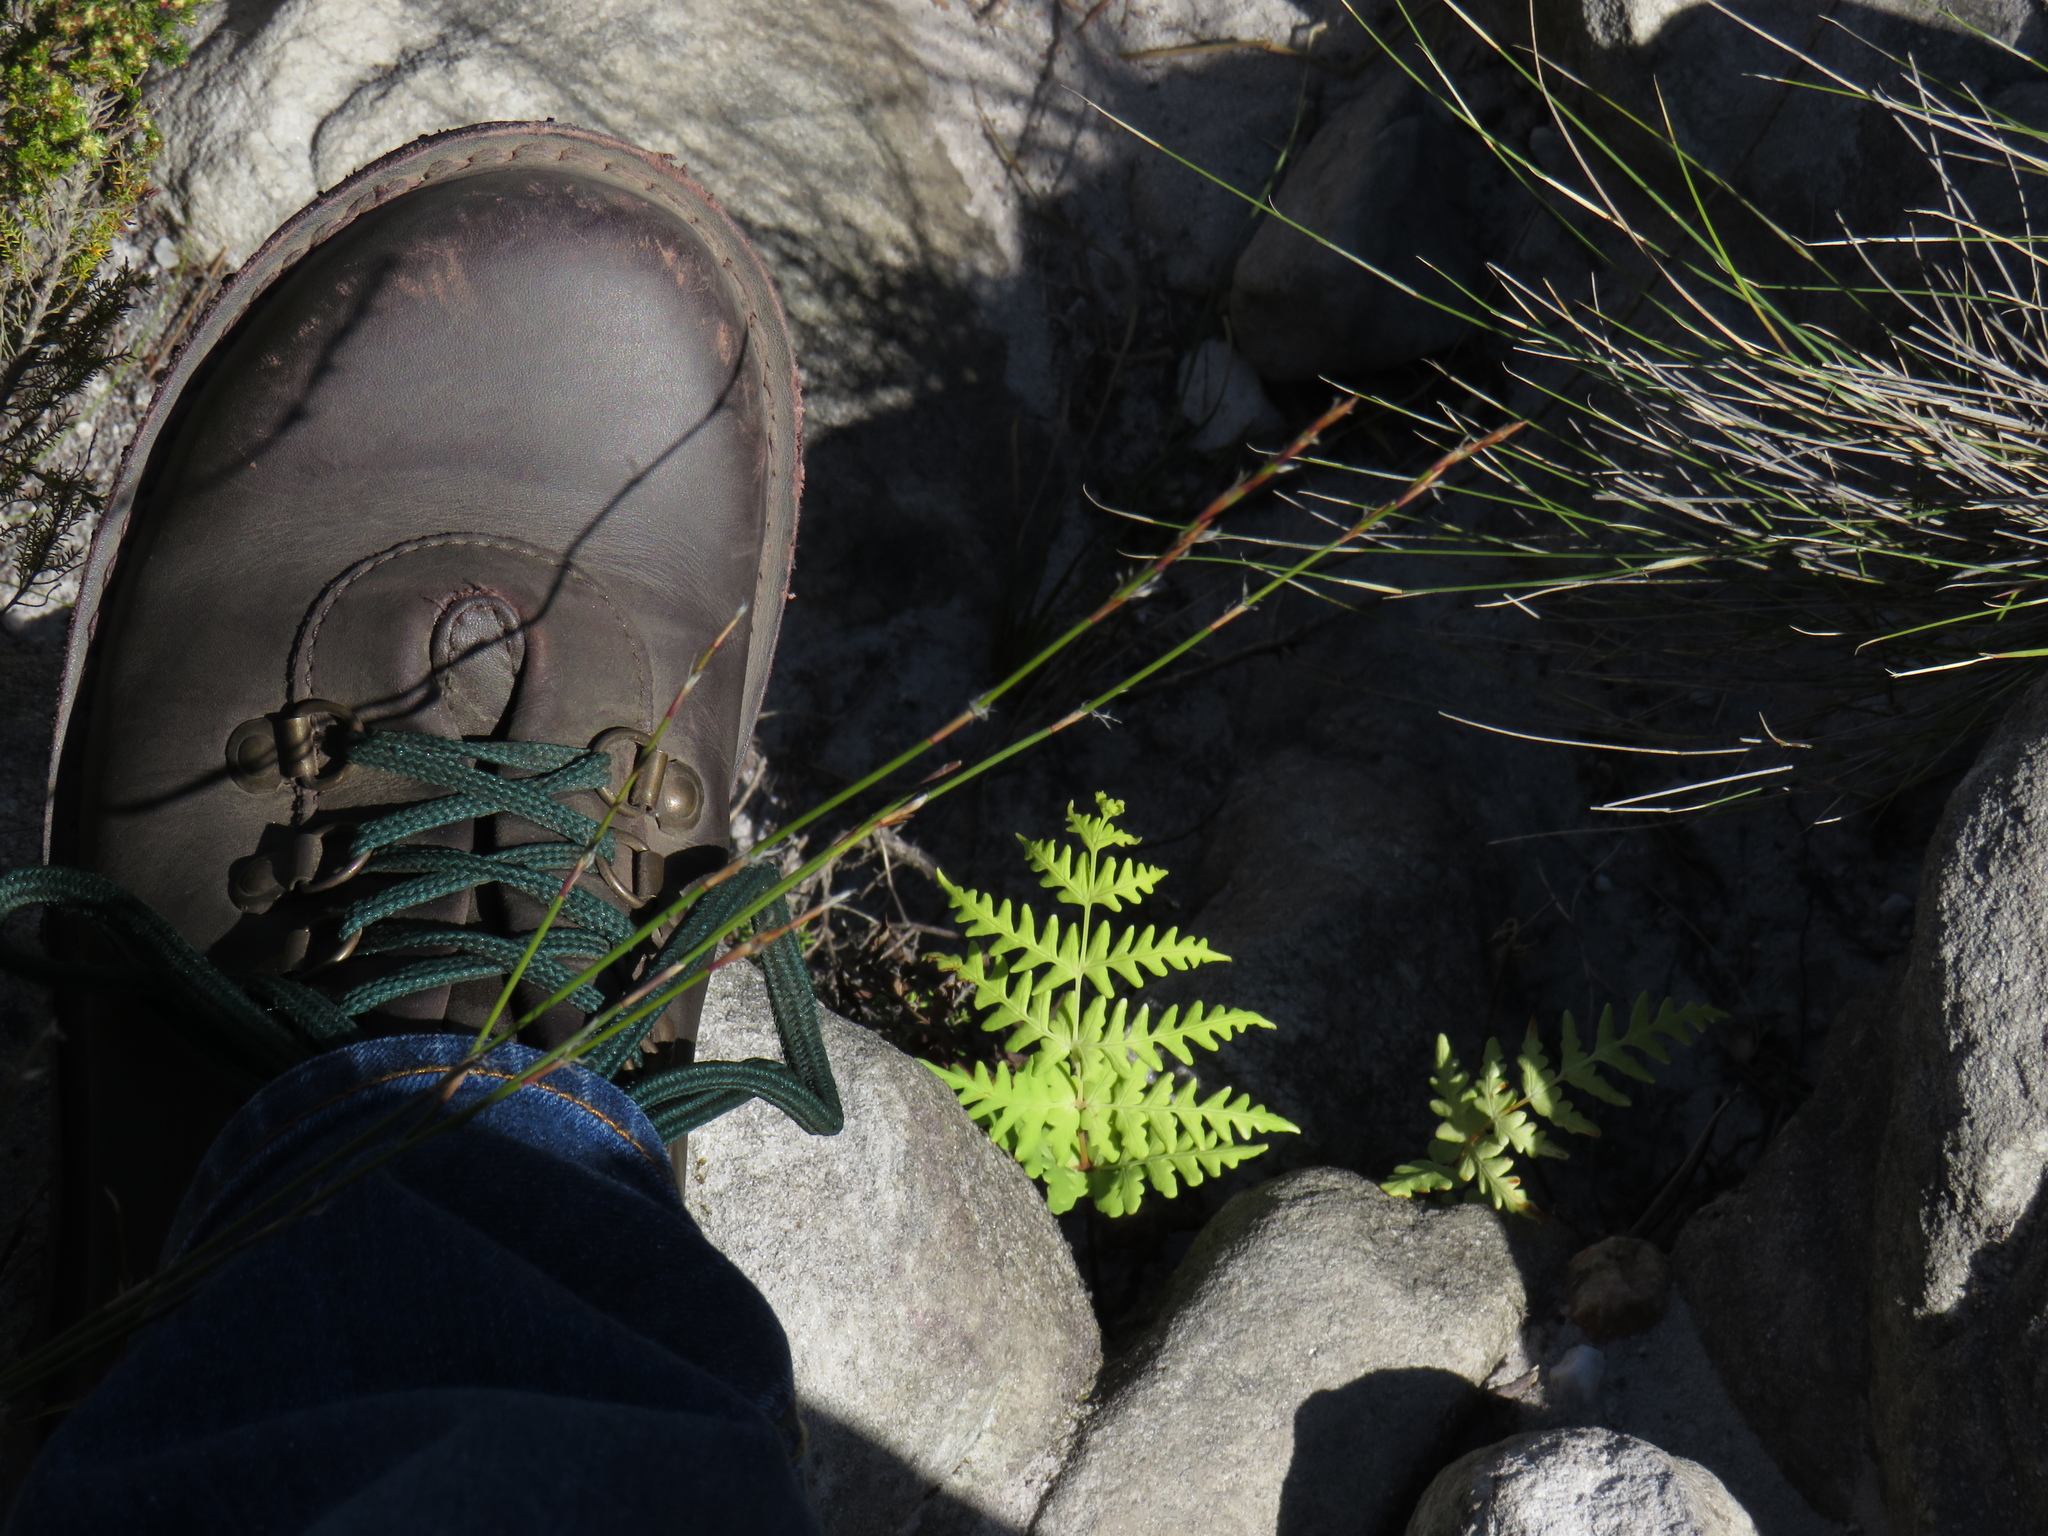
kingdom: Plantae
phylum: Tracheophyta
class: Polypodiopsida
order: Polypodiales
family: Dennstaedtiaceae
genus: Histiopteris
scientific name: Histiopteris incisa
